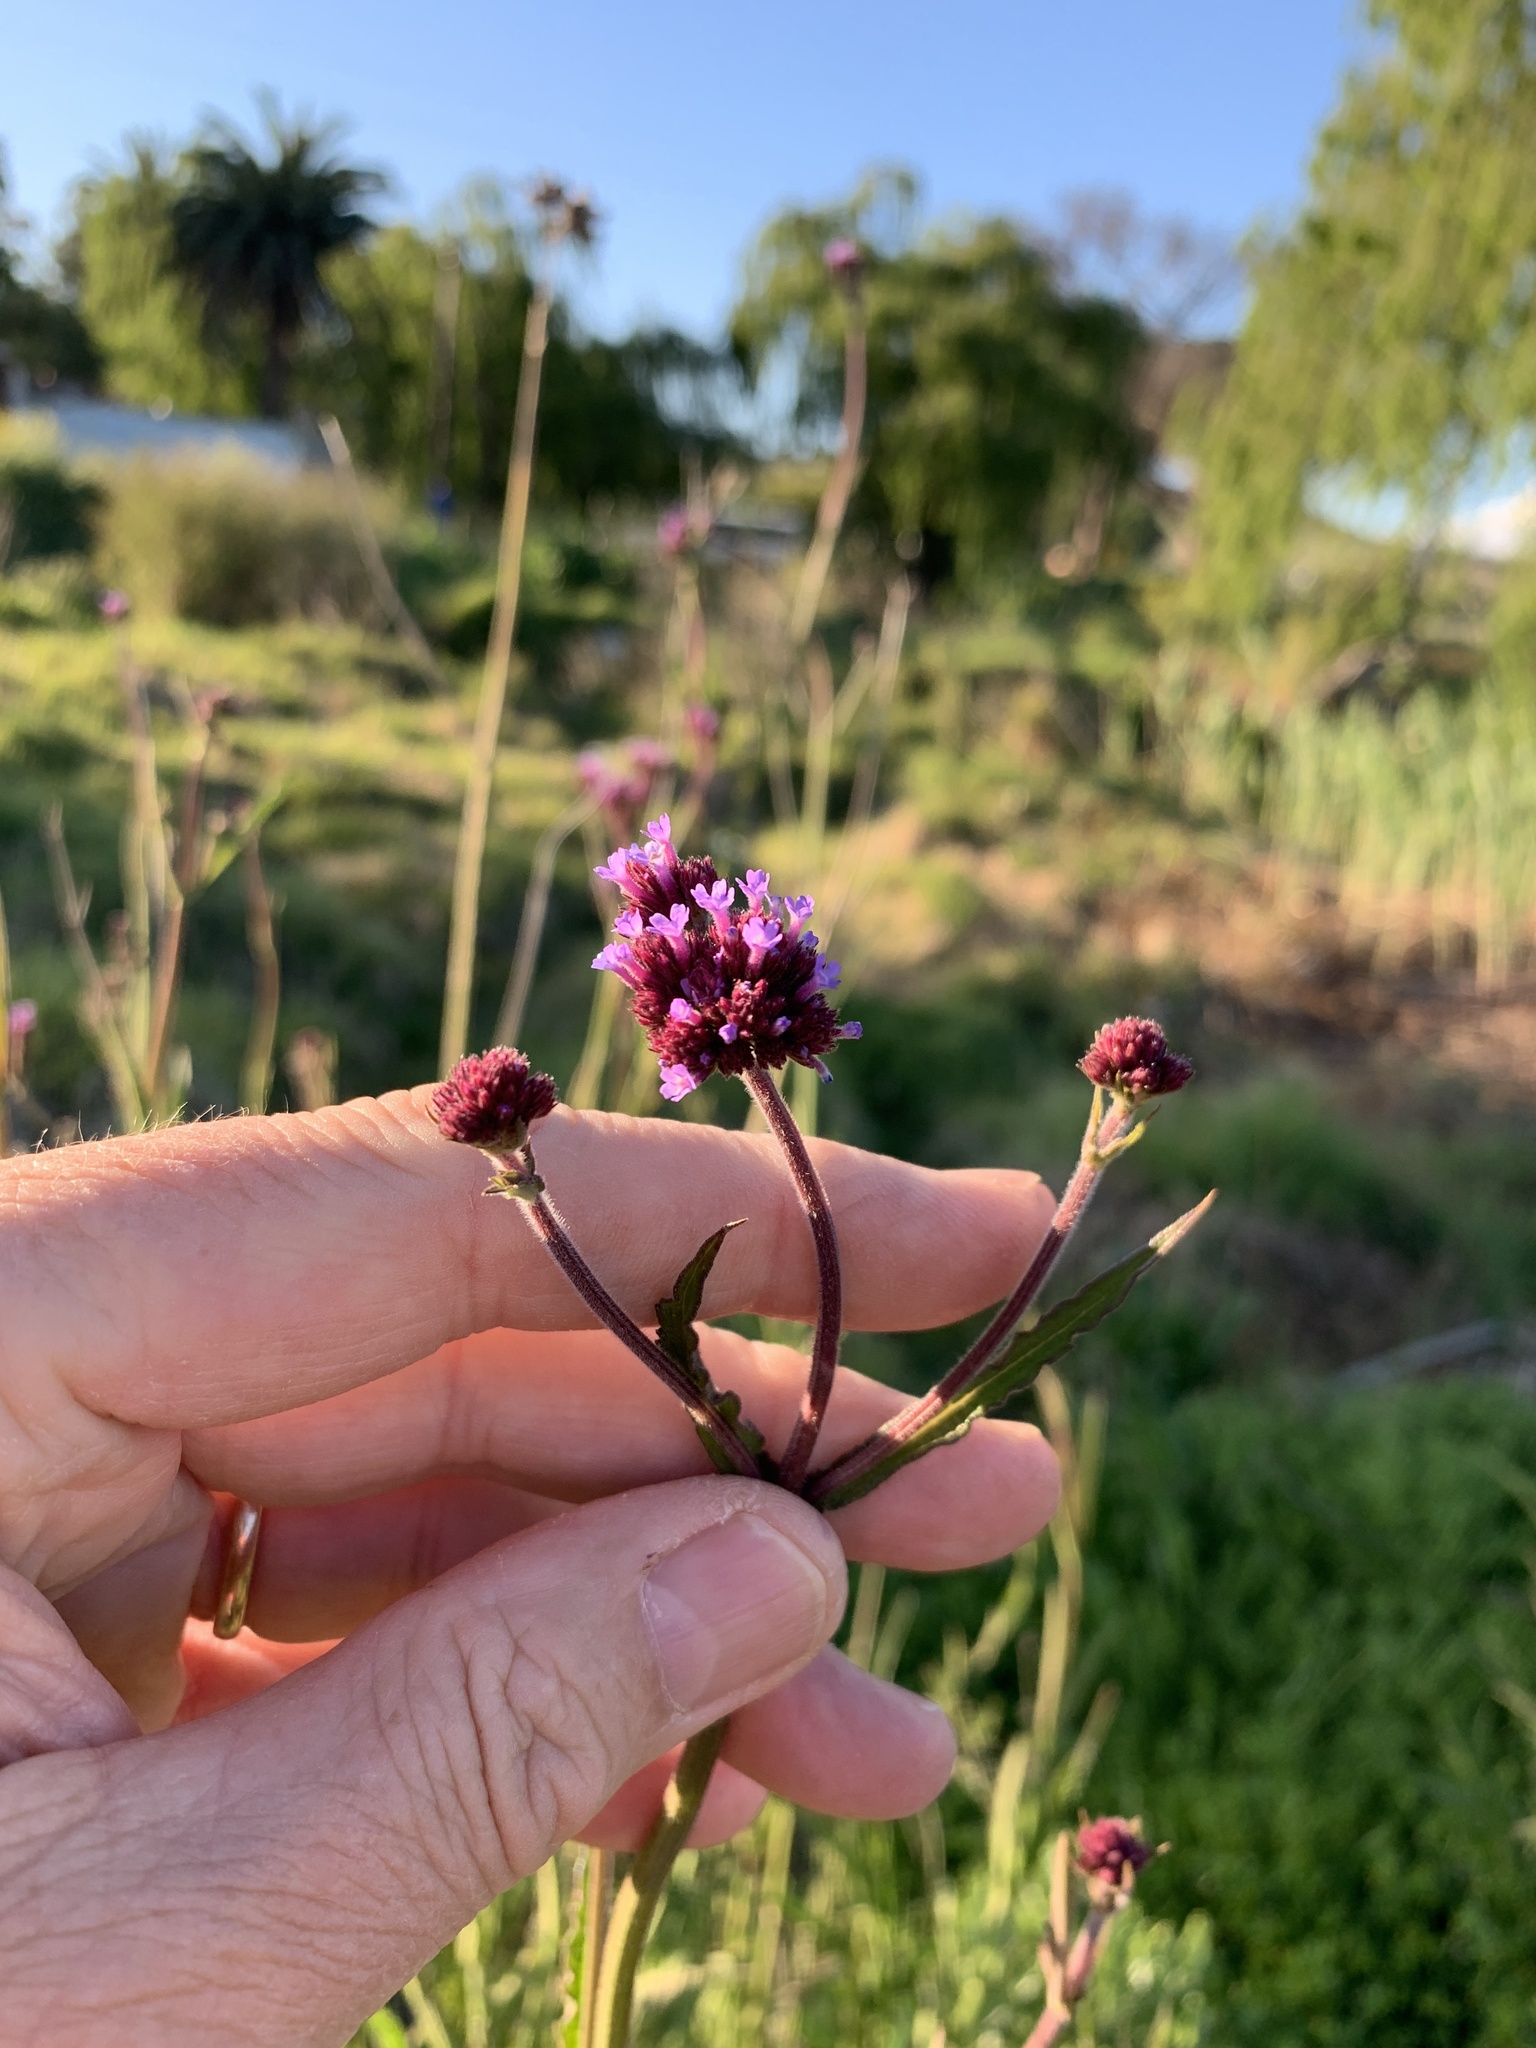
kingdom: Plantae
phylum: Tracheophyta
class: Magnoliopsida
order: Lamiales
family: Verbenaceae
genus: Verbena
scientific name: Verbena bonariensis
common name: Purpletop vervain
